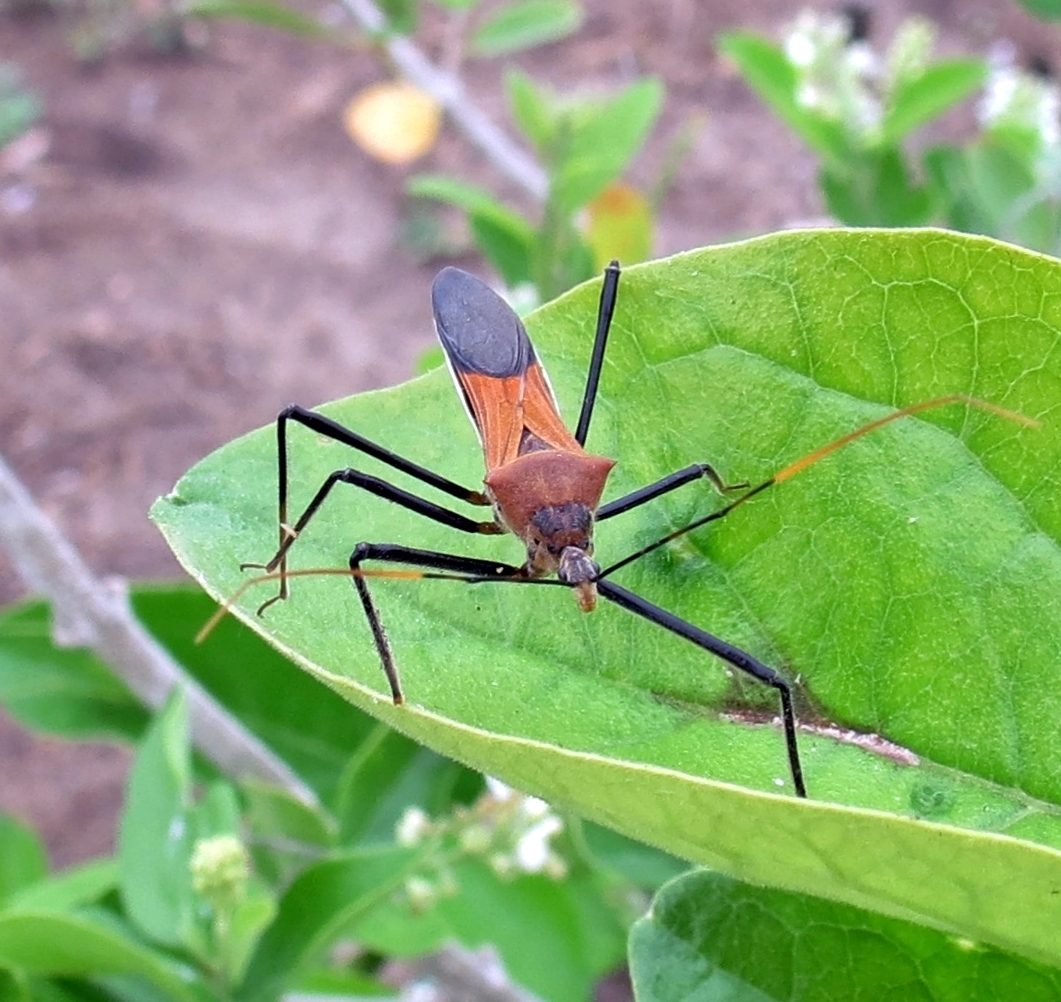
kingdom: Animalia
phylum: Arthropoda
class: Insecta
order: Hemiptera
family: Reduviidae
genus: Zelus
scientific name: Zelus janus
